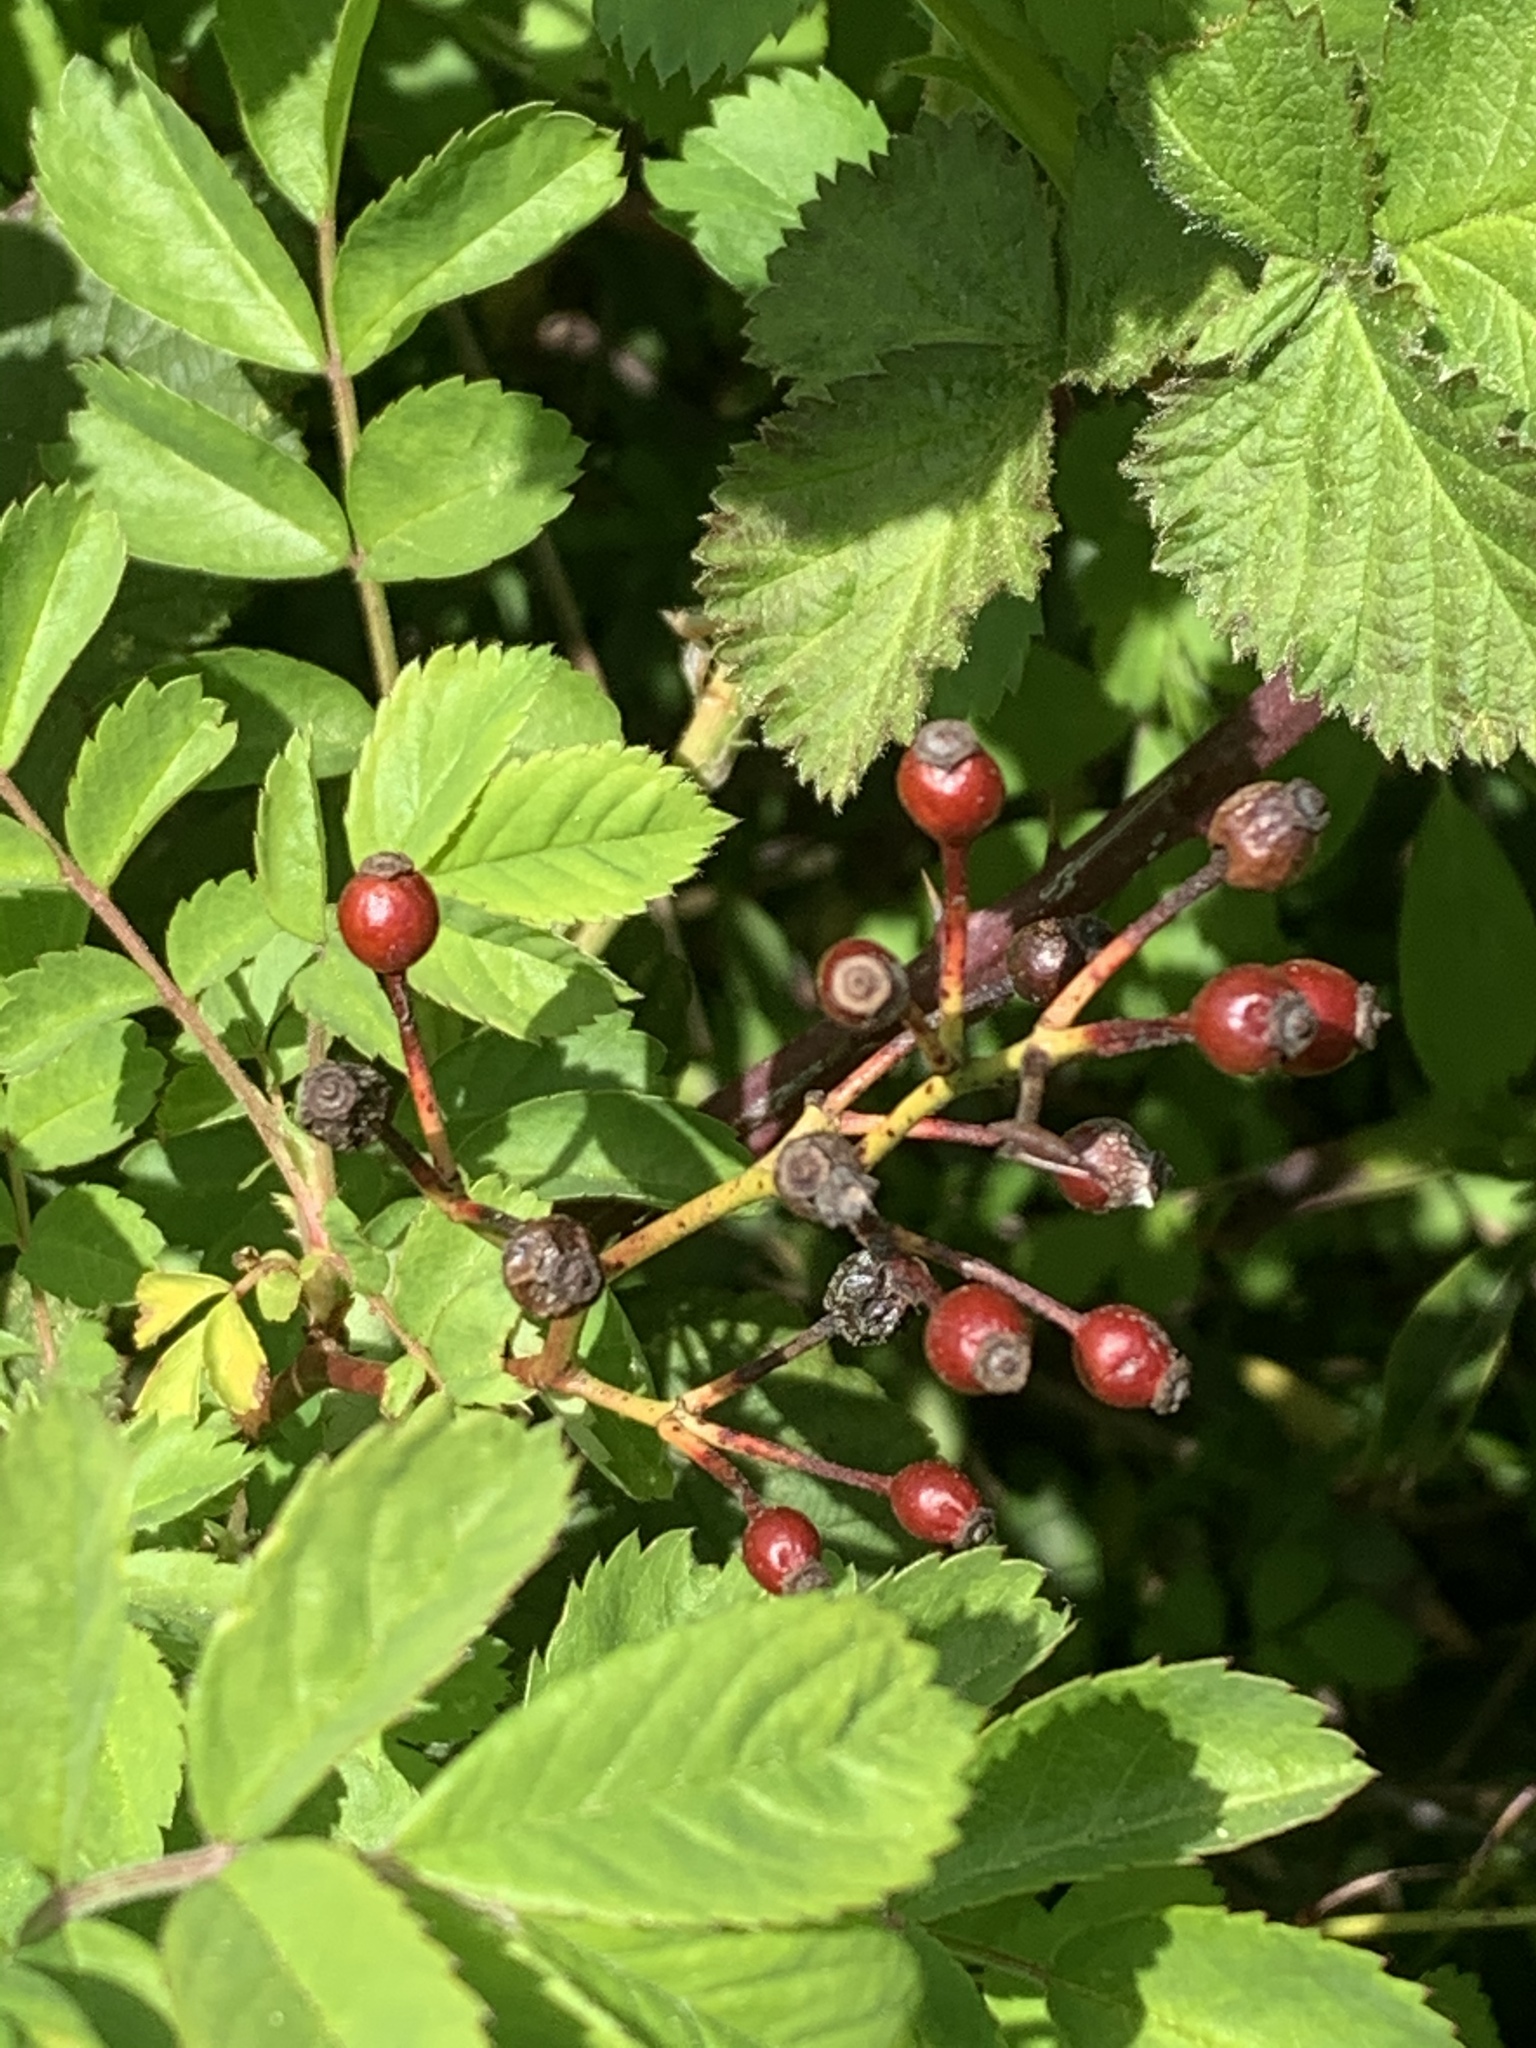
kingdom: Plantae
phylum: Tracheophyta
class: Magnoliopsida
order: Rosales
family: Rosaceae
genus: Rosa
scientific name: Rosa multiflora
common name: Multiflora rose
